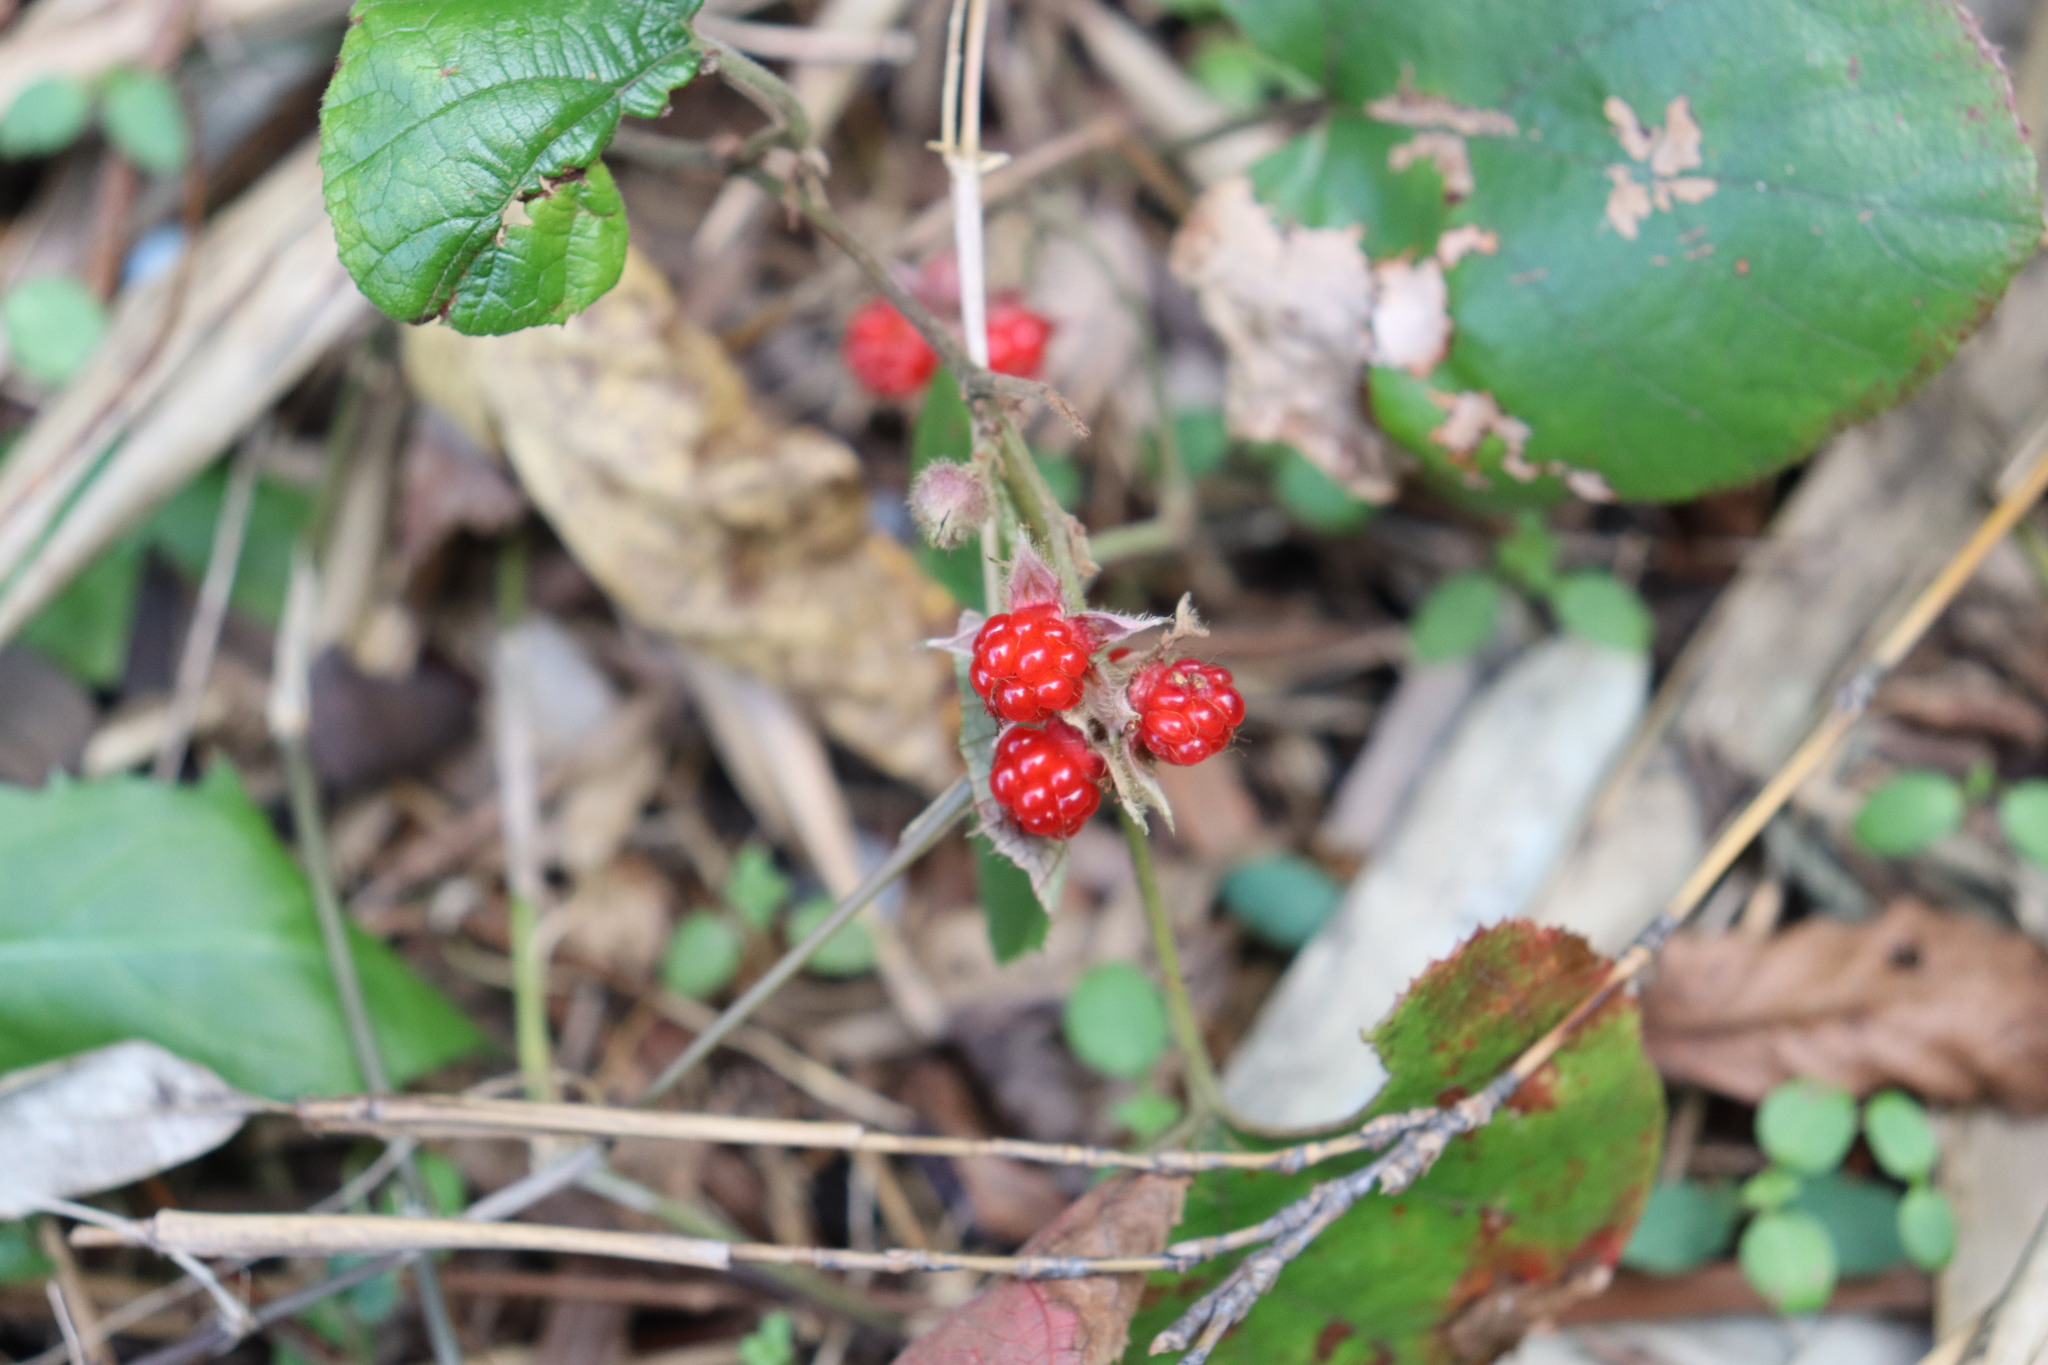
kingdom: Plantae
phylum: Tracheophyta
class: Magnoliopsida
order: Rosales
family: Rosaceae
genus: Rubus
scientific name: Rubus buergeri
